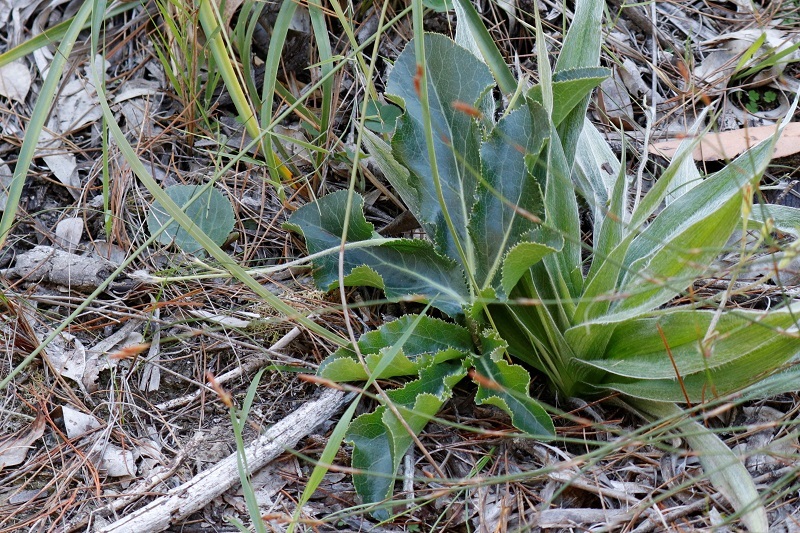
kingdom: Plantae
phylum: Tracheophyta
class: Magnoliopsida
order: Apiales
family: Apiaceae
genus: Lichtensteinia
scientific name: Lichtensteinia trifida
